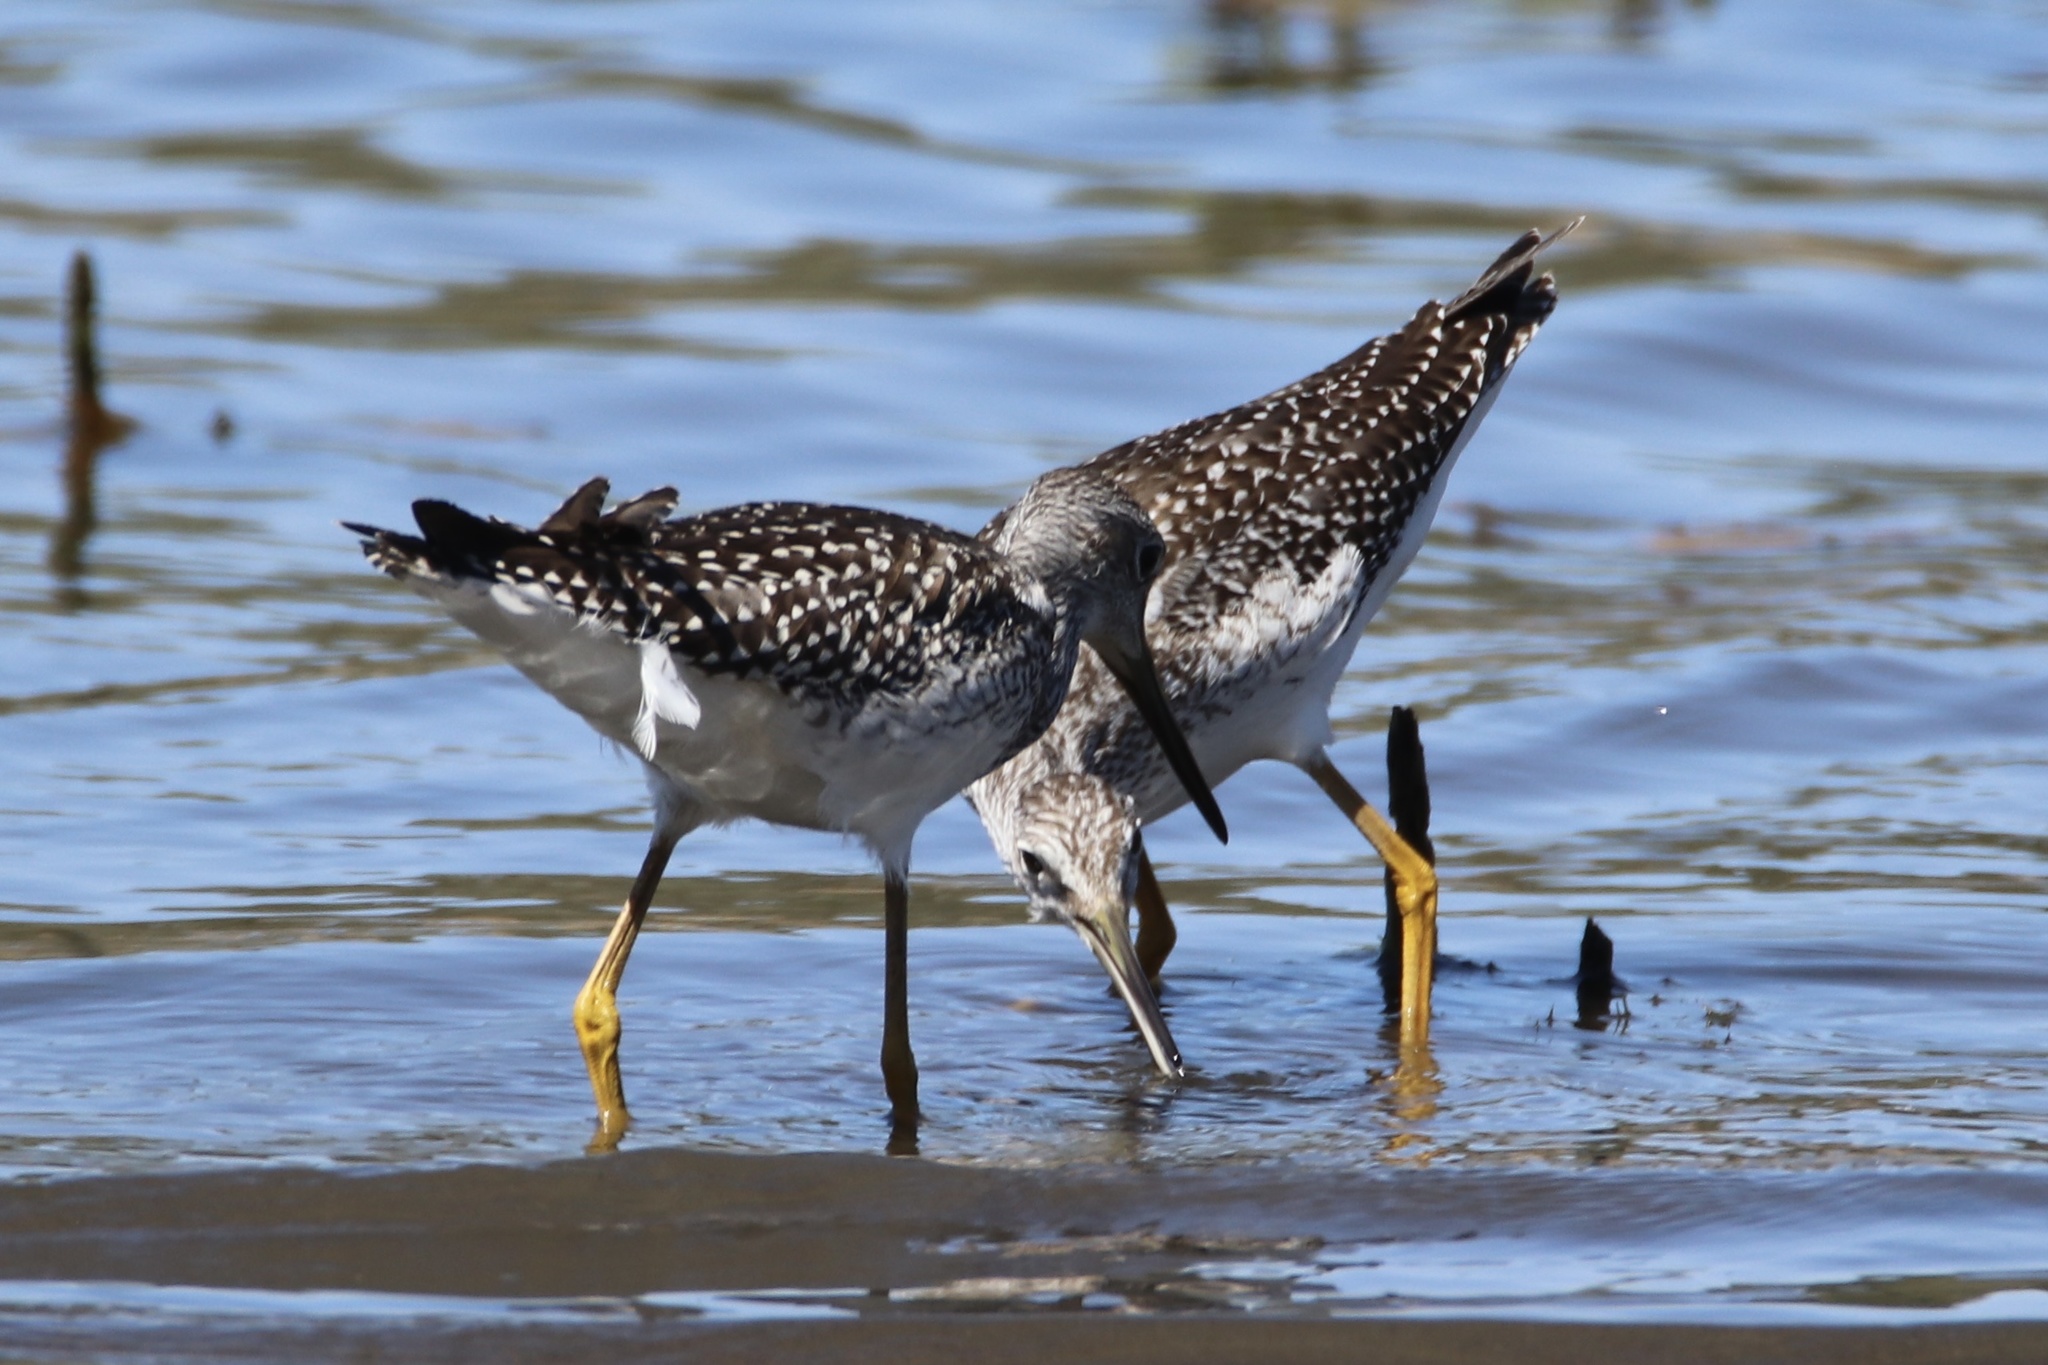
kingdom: Animalia
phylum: Chordata
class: Aves
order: Charadriiformes
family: Scolopacidae
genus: Tringa
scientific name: Tringa melanoleuca
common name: Greater yellowlegs
